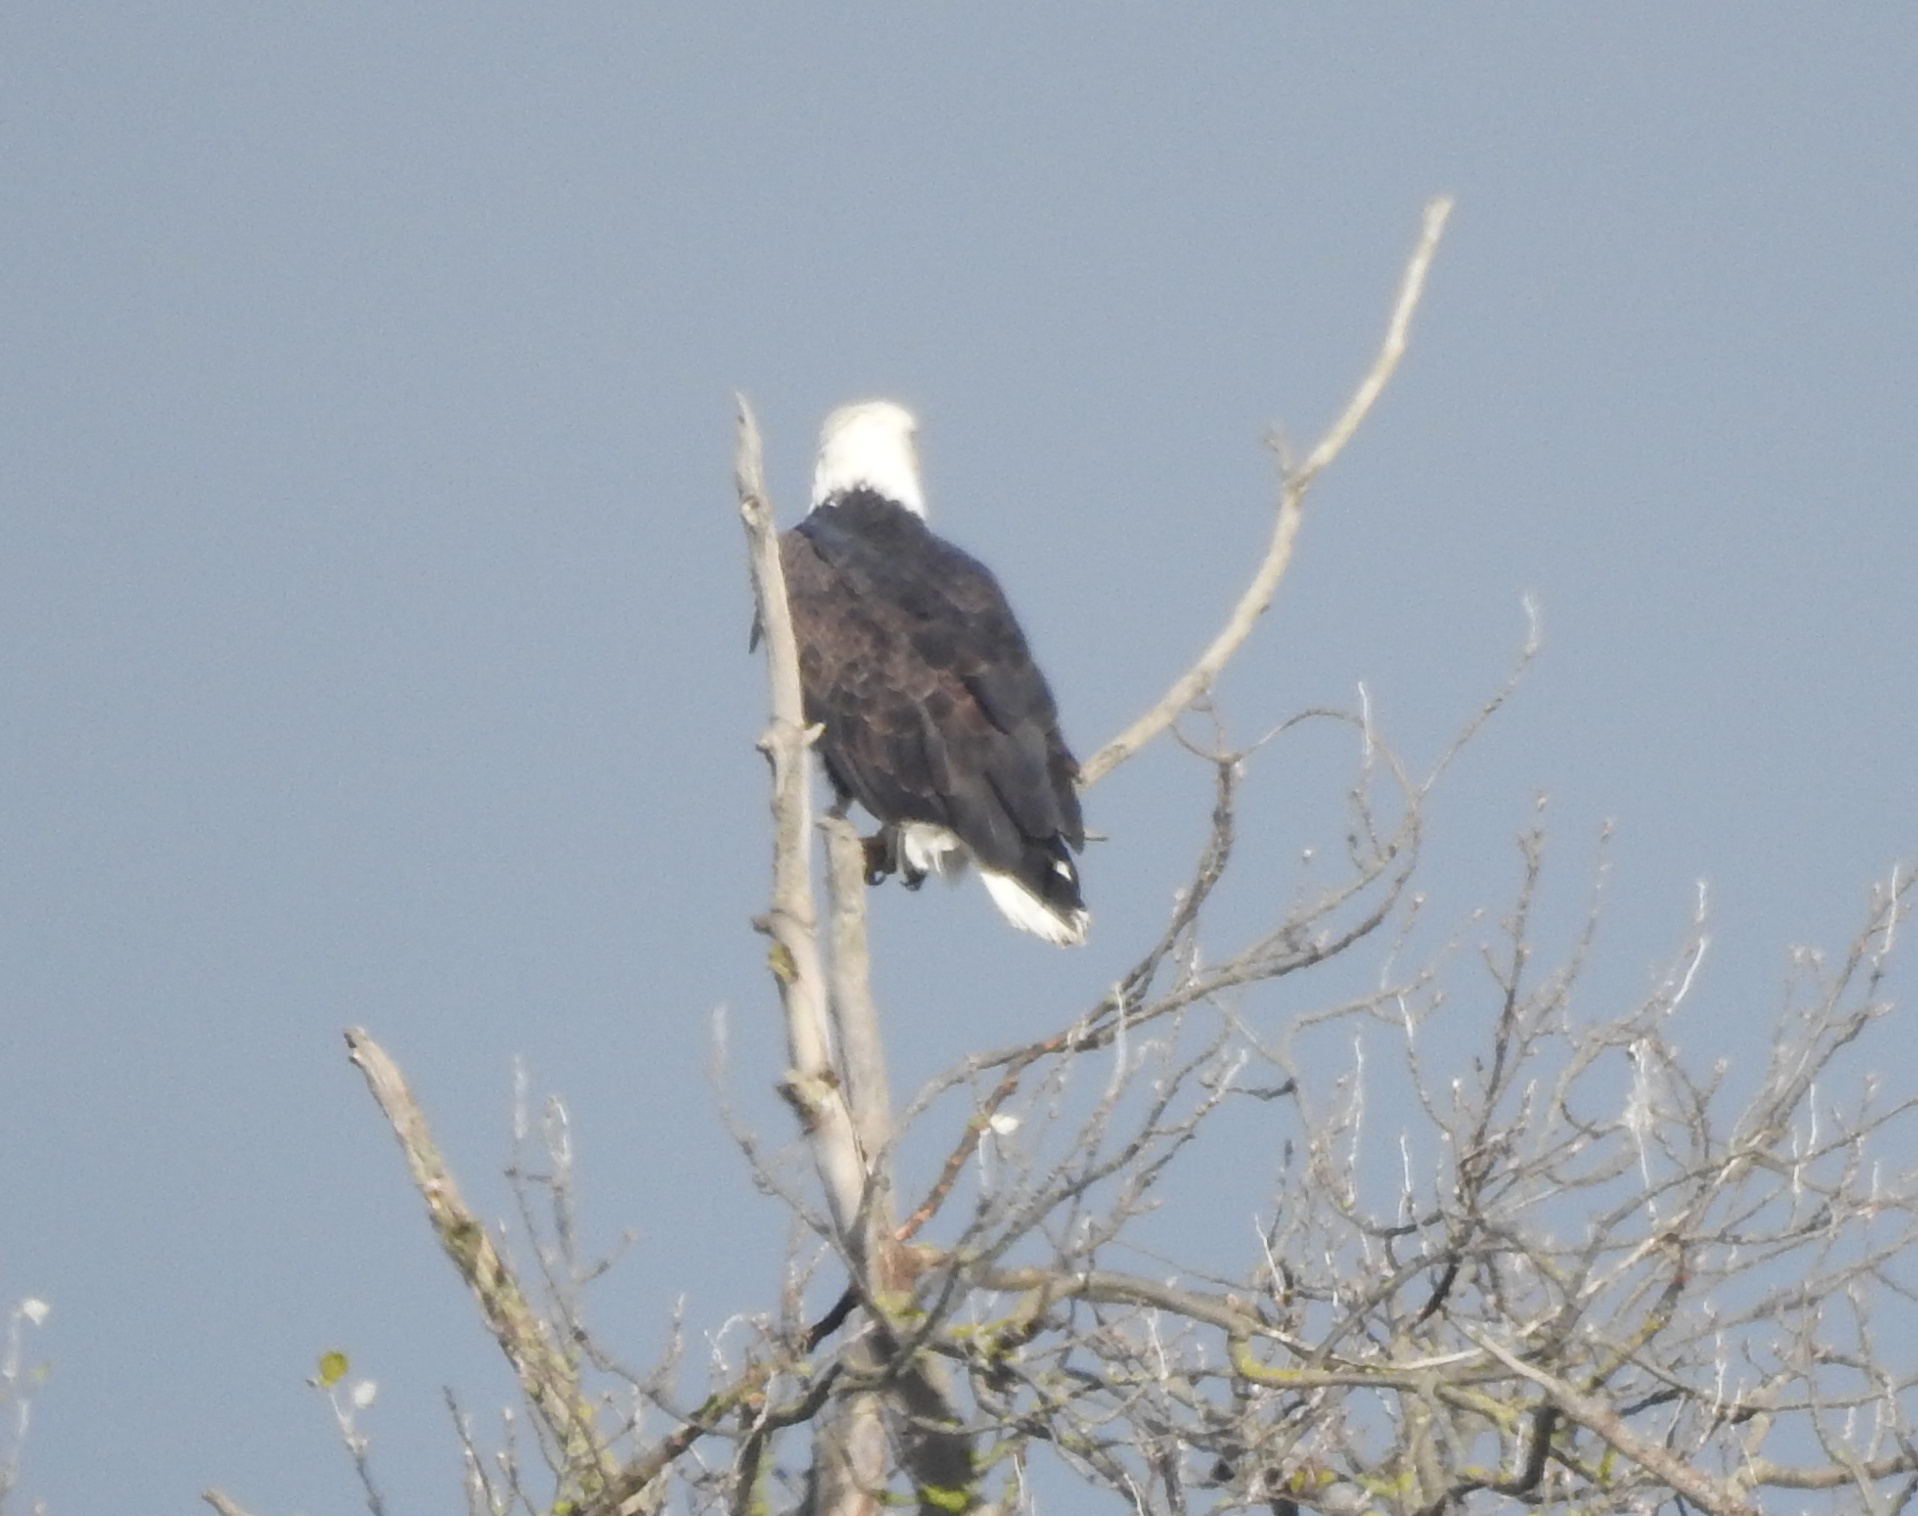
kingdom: Animalia
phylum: Chordata
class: Aves
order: Accipitriformes
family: Accipitridae
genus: Haliaeetus
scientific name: Haliaeetus leucocephalus
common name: Bald eagle
